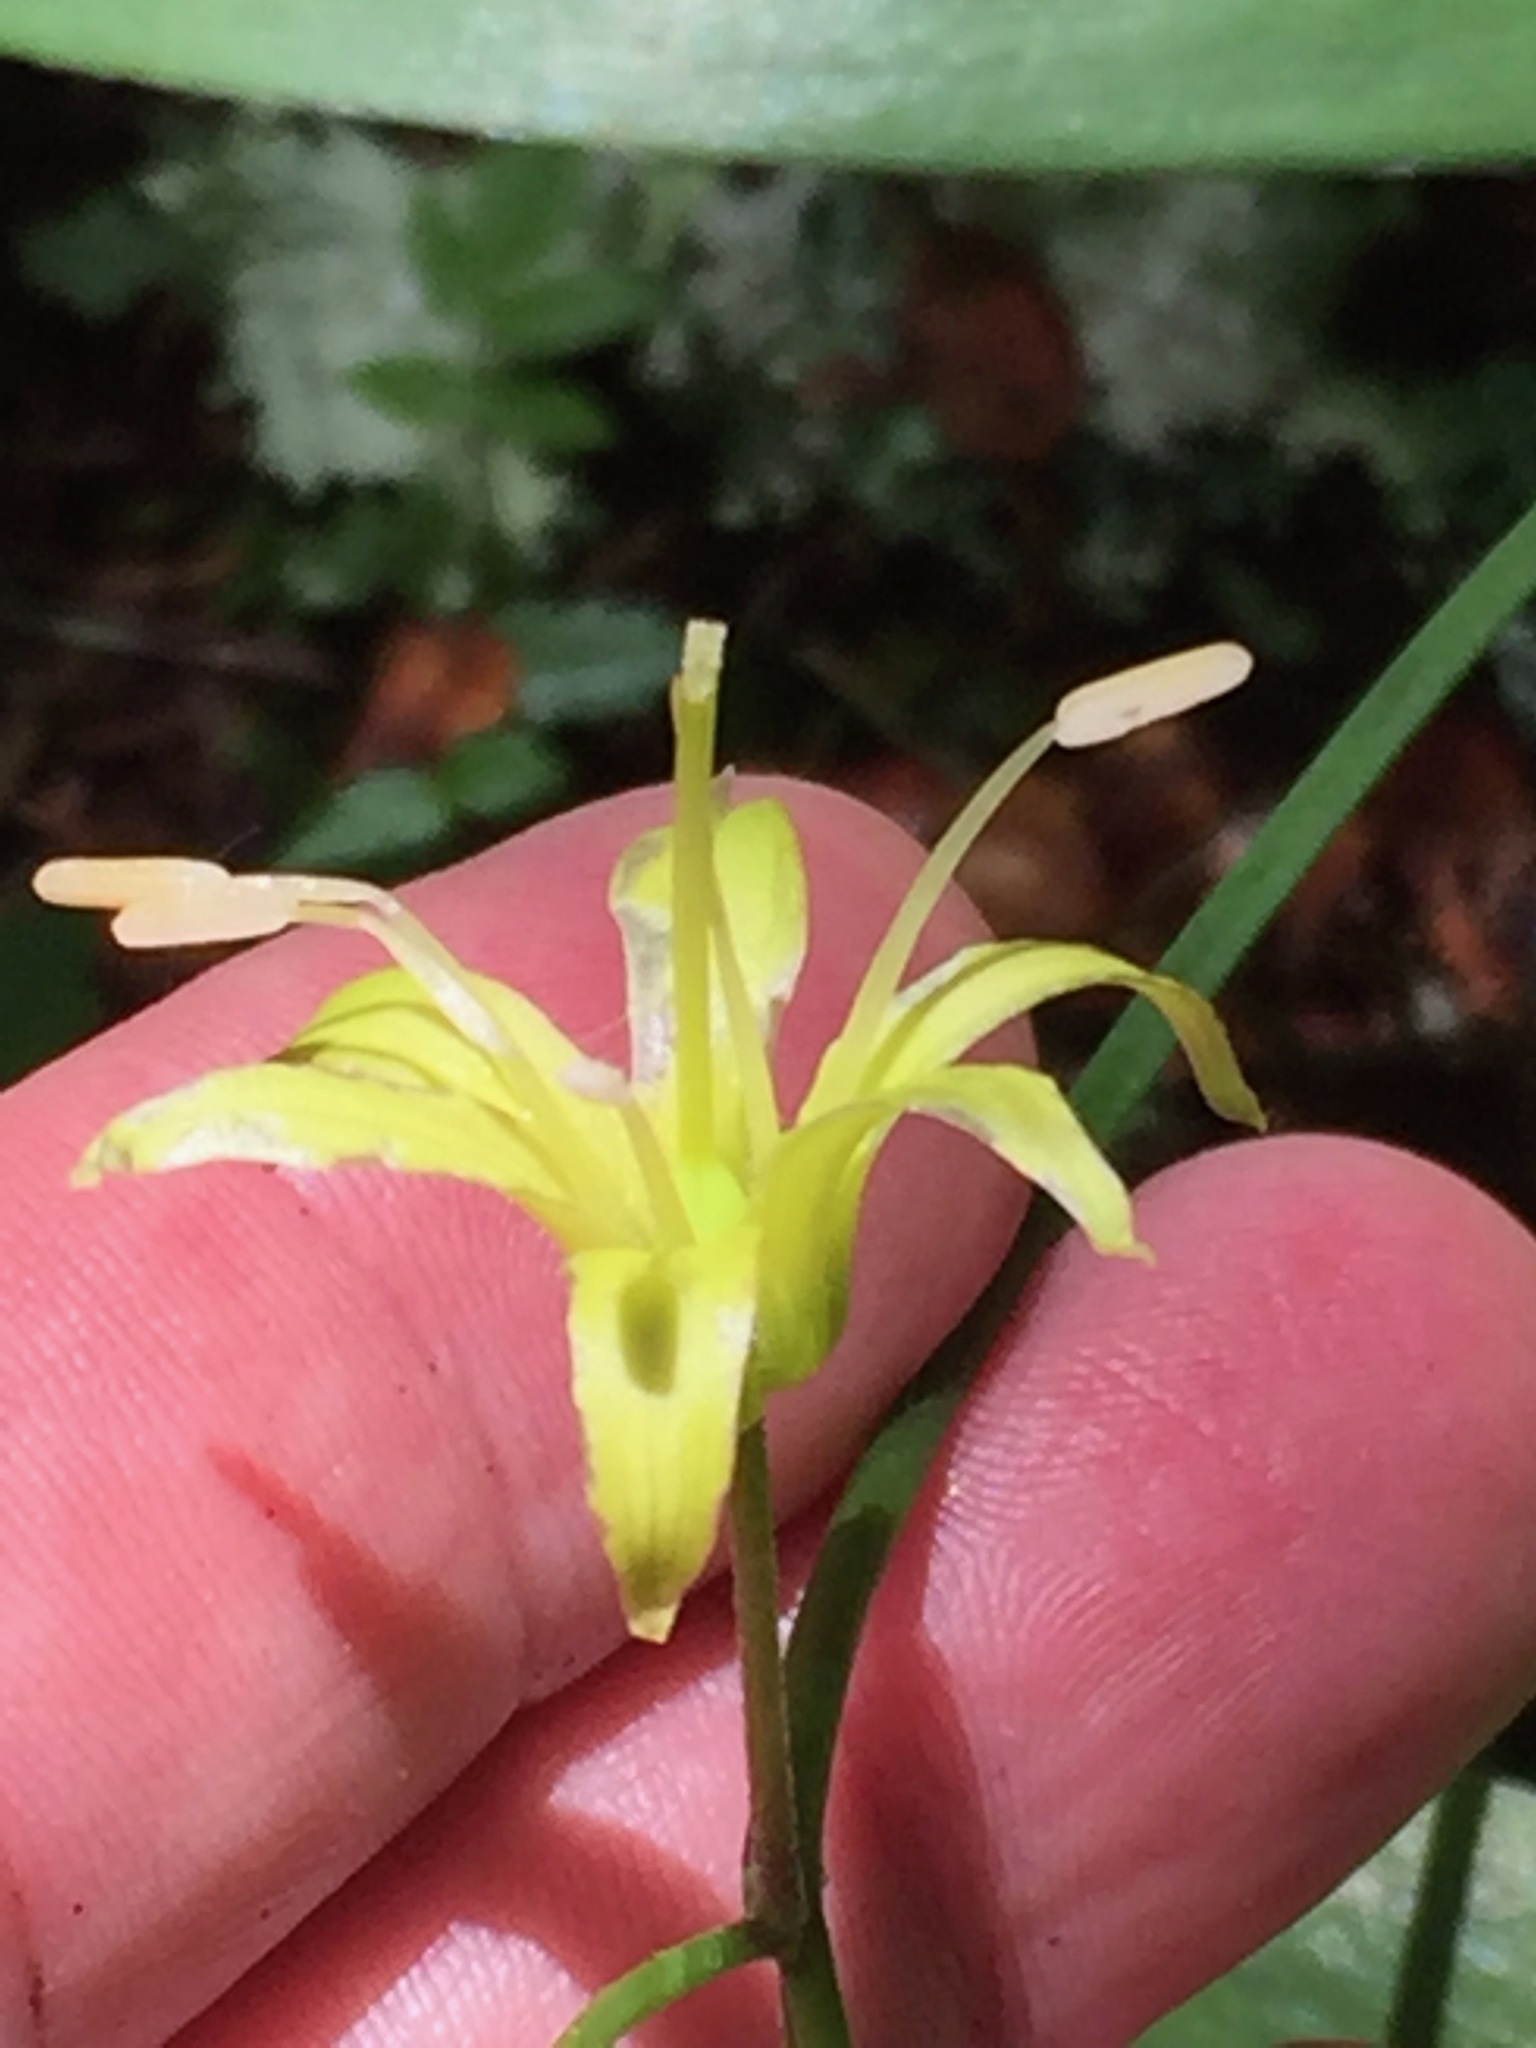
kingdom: Plantae
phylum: Tracheophyta
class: Liliopsida
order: Liliales
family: Liliaceae
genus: Clintonia
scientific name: Clintonia borealis
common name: Yellow clintonia
